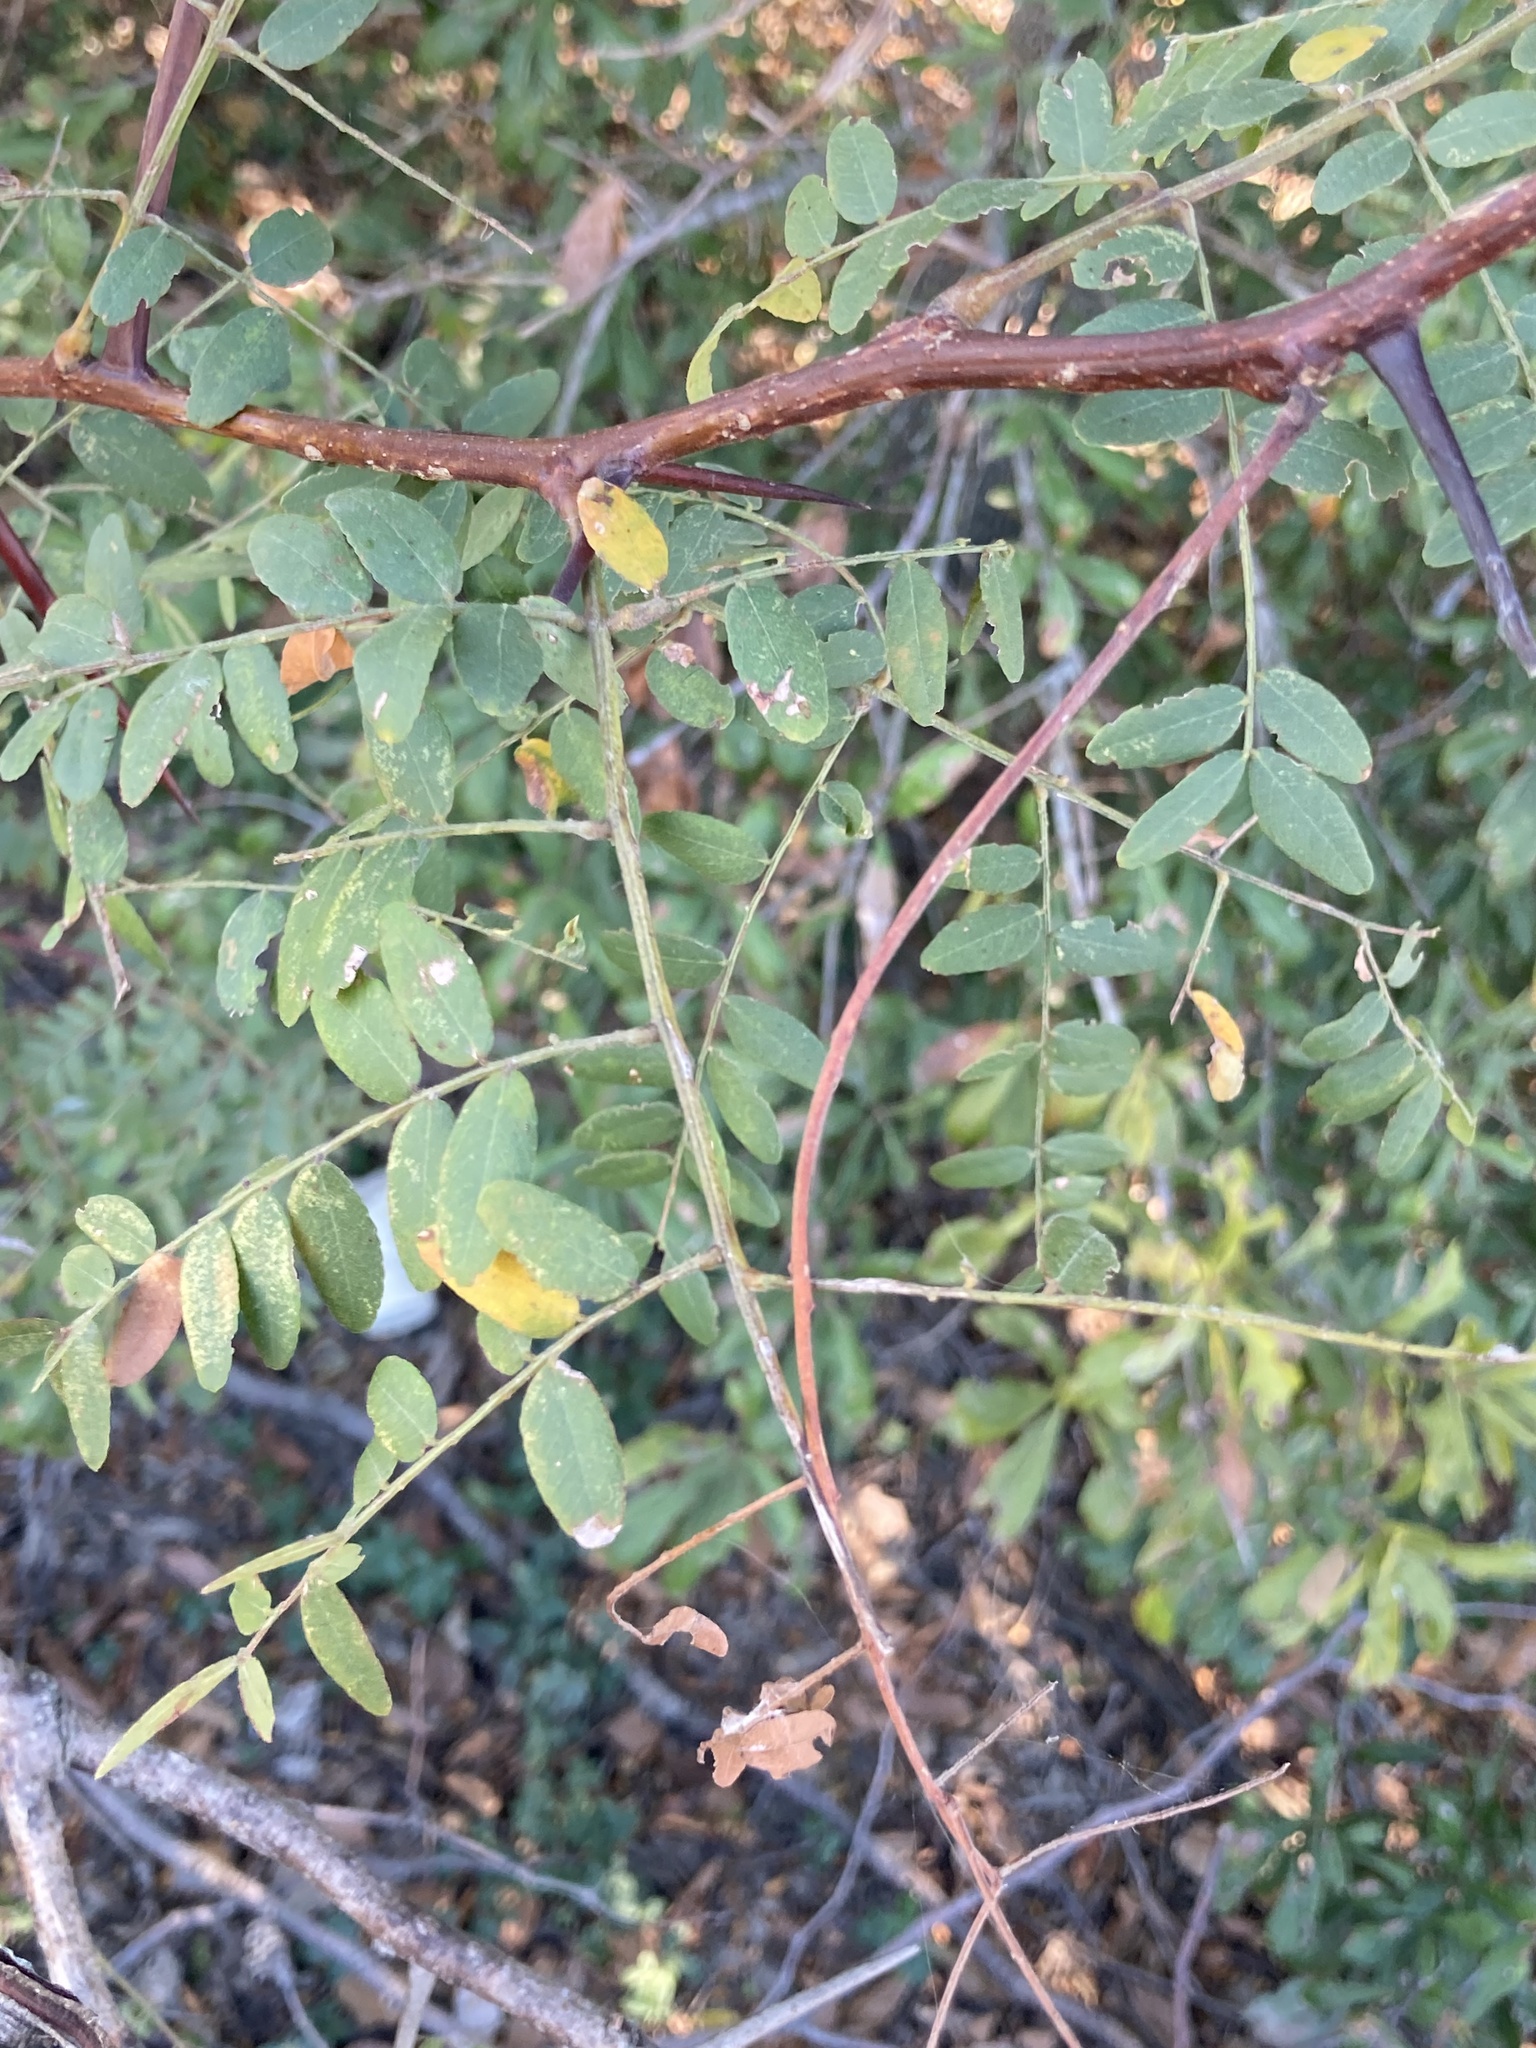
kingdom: Plantae
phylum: Tracheophyta
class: Magnoliopsida
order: Fabales
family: Fabaceae
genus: Gleditsia
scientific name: Gleditsia triacanthos
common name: Common honeylocust
